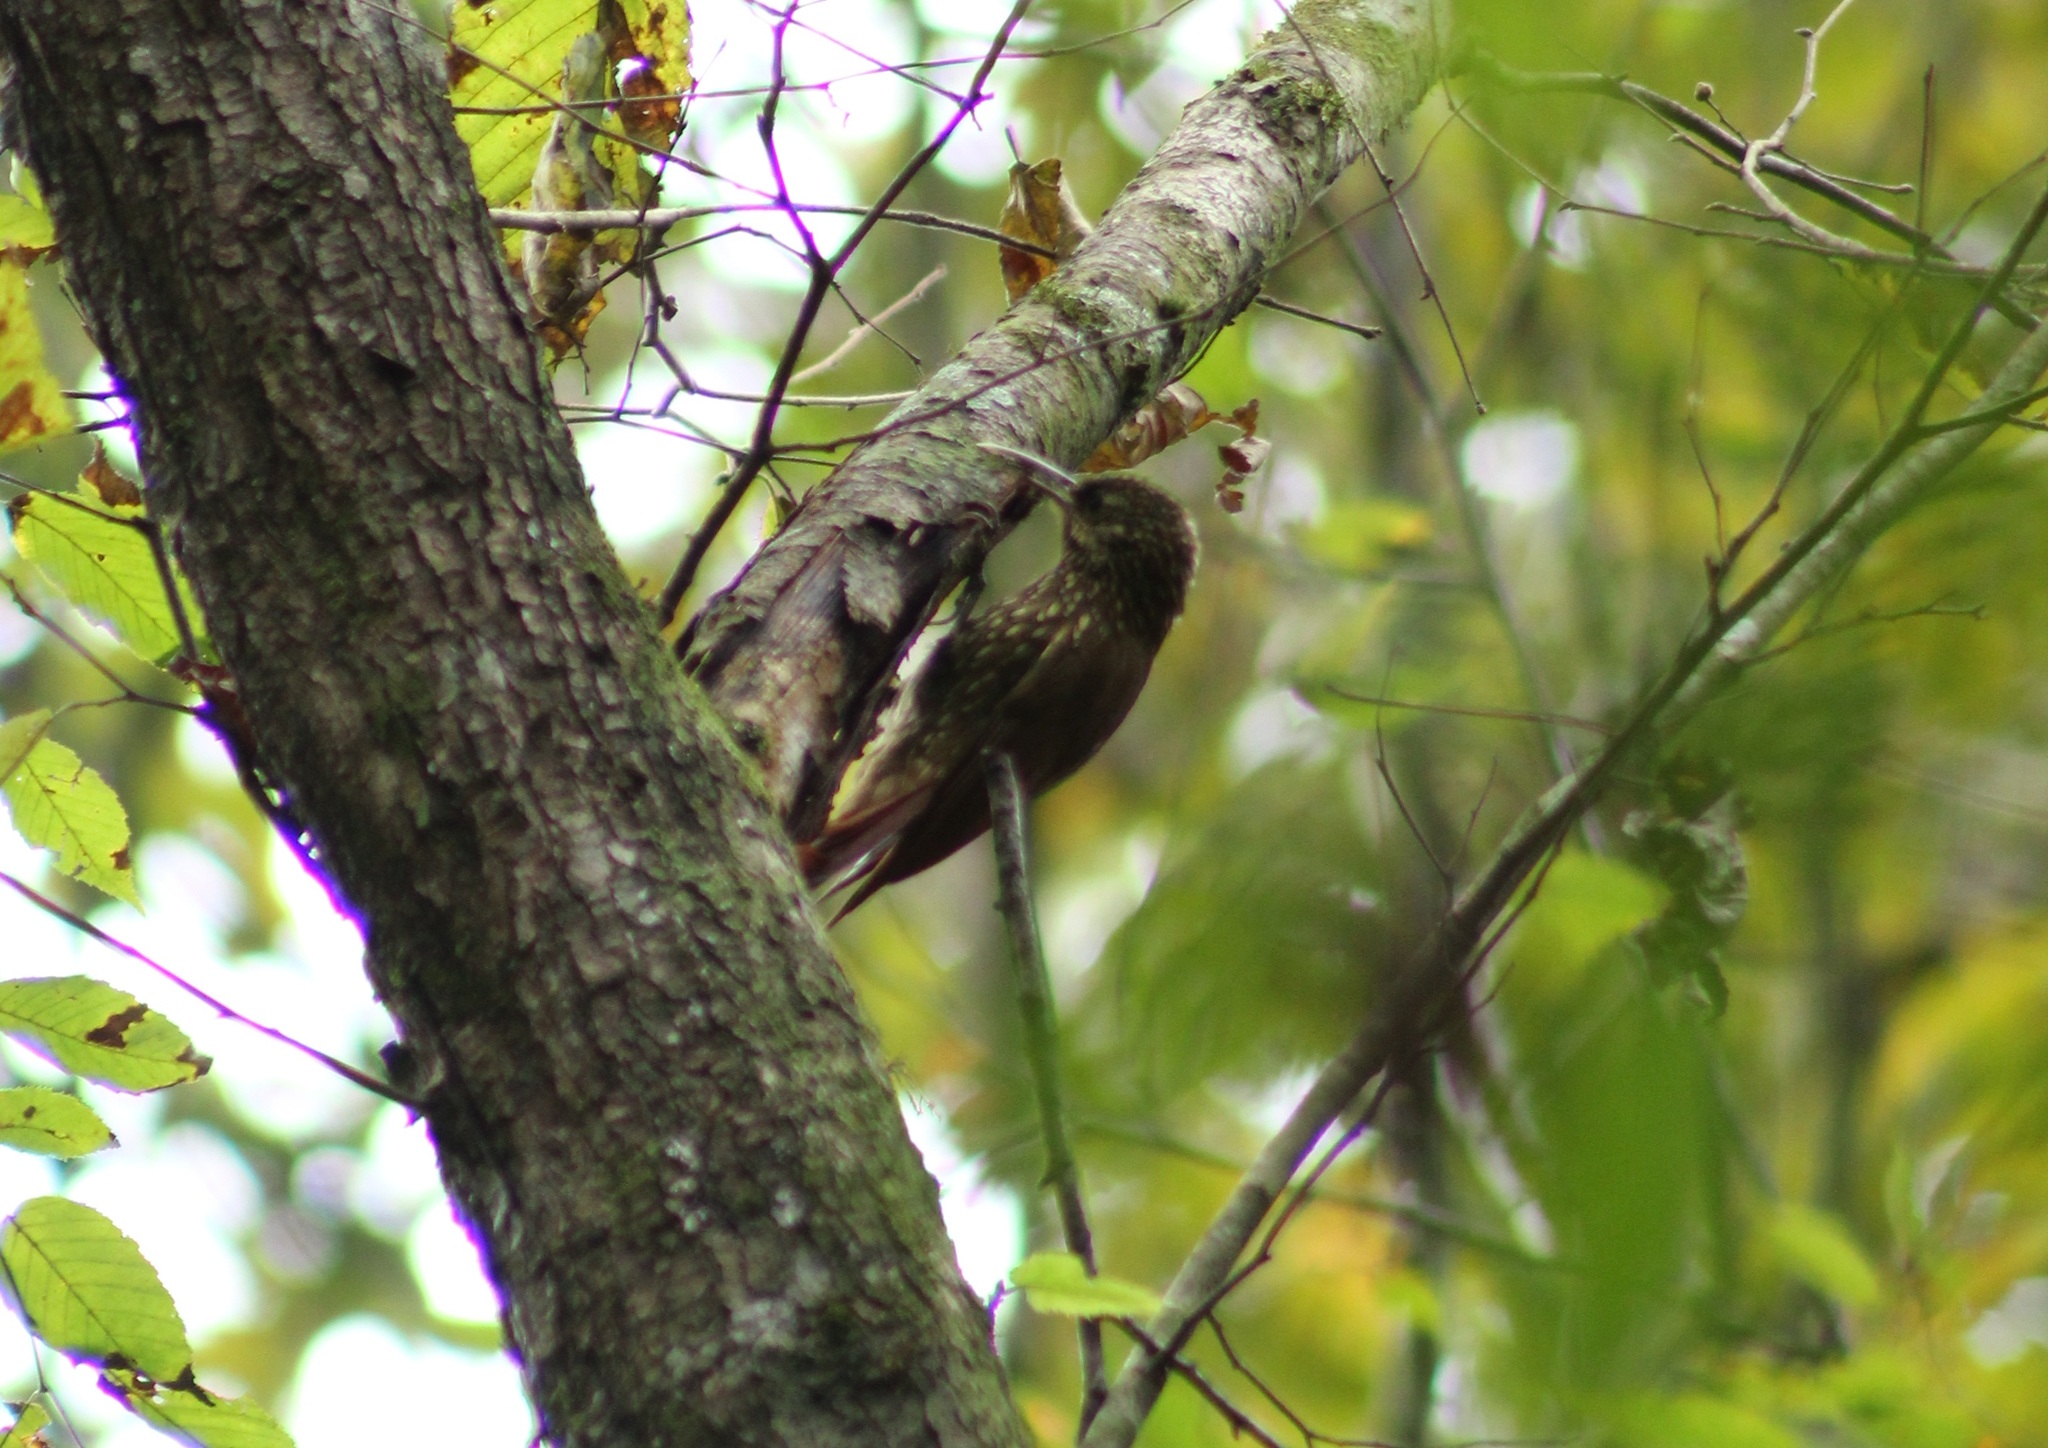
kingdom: Animalia
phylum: Chordata
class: Aves
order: Passeriformes
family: Furnariidae
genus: Lepidocolaptes
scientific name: Lepidocolaptes affinis
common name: Spot-crowned woodcreeper
